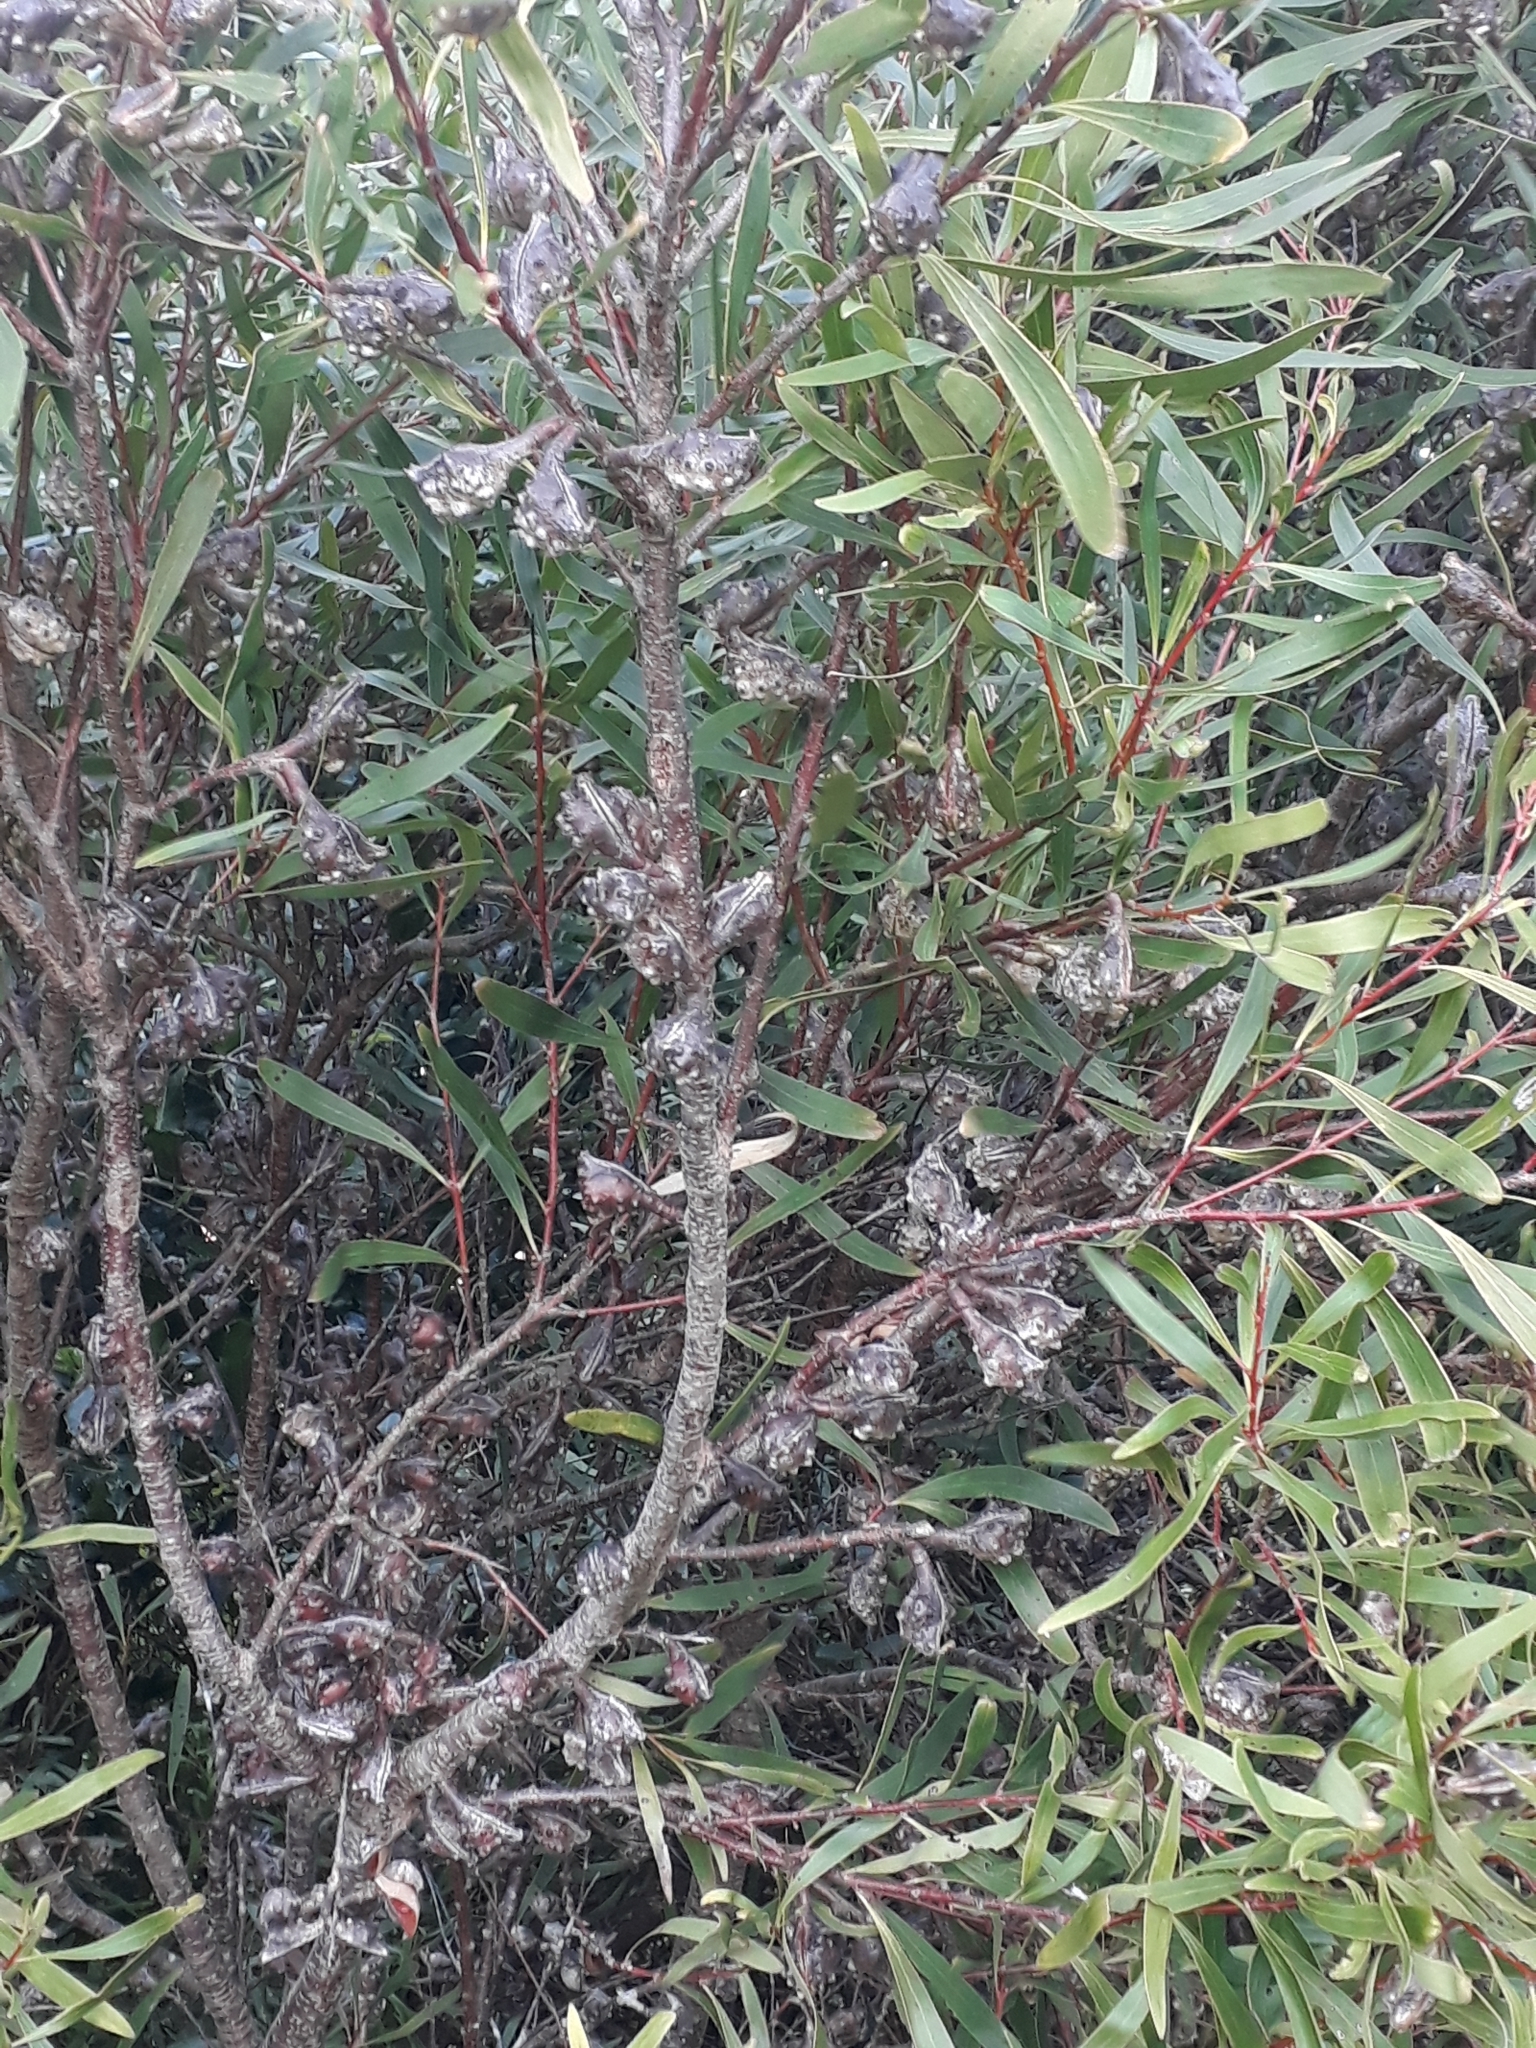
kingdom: Plantae
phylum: Tracheophyta
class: Magnoliopsida
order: Proteales
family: Proteaceae
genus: Hakea
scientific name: Hakea salicifolia
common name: Willow hakea
